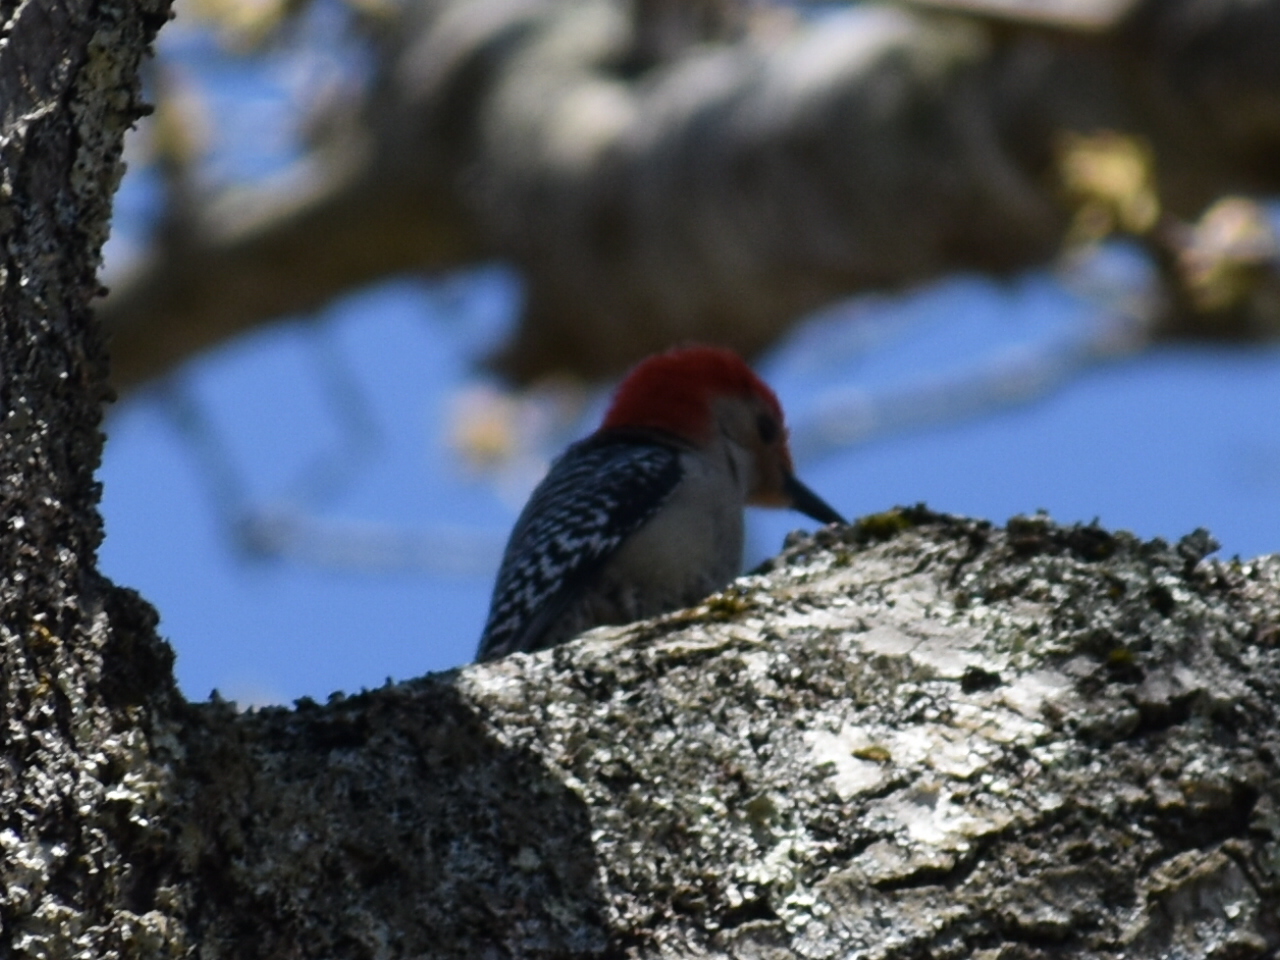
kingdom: Animalia
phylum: Chordata
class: Aves
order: Piciformes
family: Picidae
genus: Melanerpes
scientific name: Melanerpes carolinus
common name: Red-bellied woodpecker
